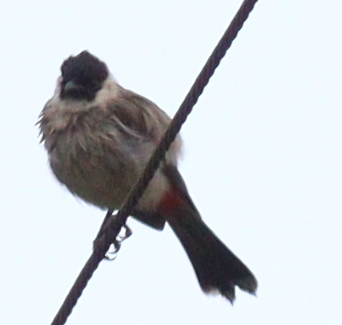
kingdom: Animalia
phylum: Chordata
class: Aves
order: Passeriformes
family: Pycnonotidae
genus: Pycnonotus
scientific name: Pycnonotus aurigaster
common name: Sooty-headed bulbul
